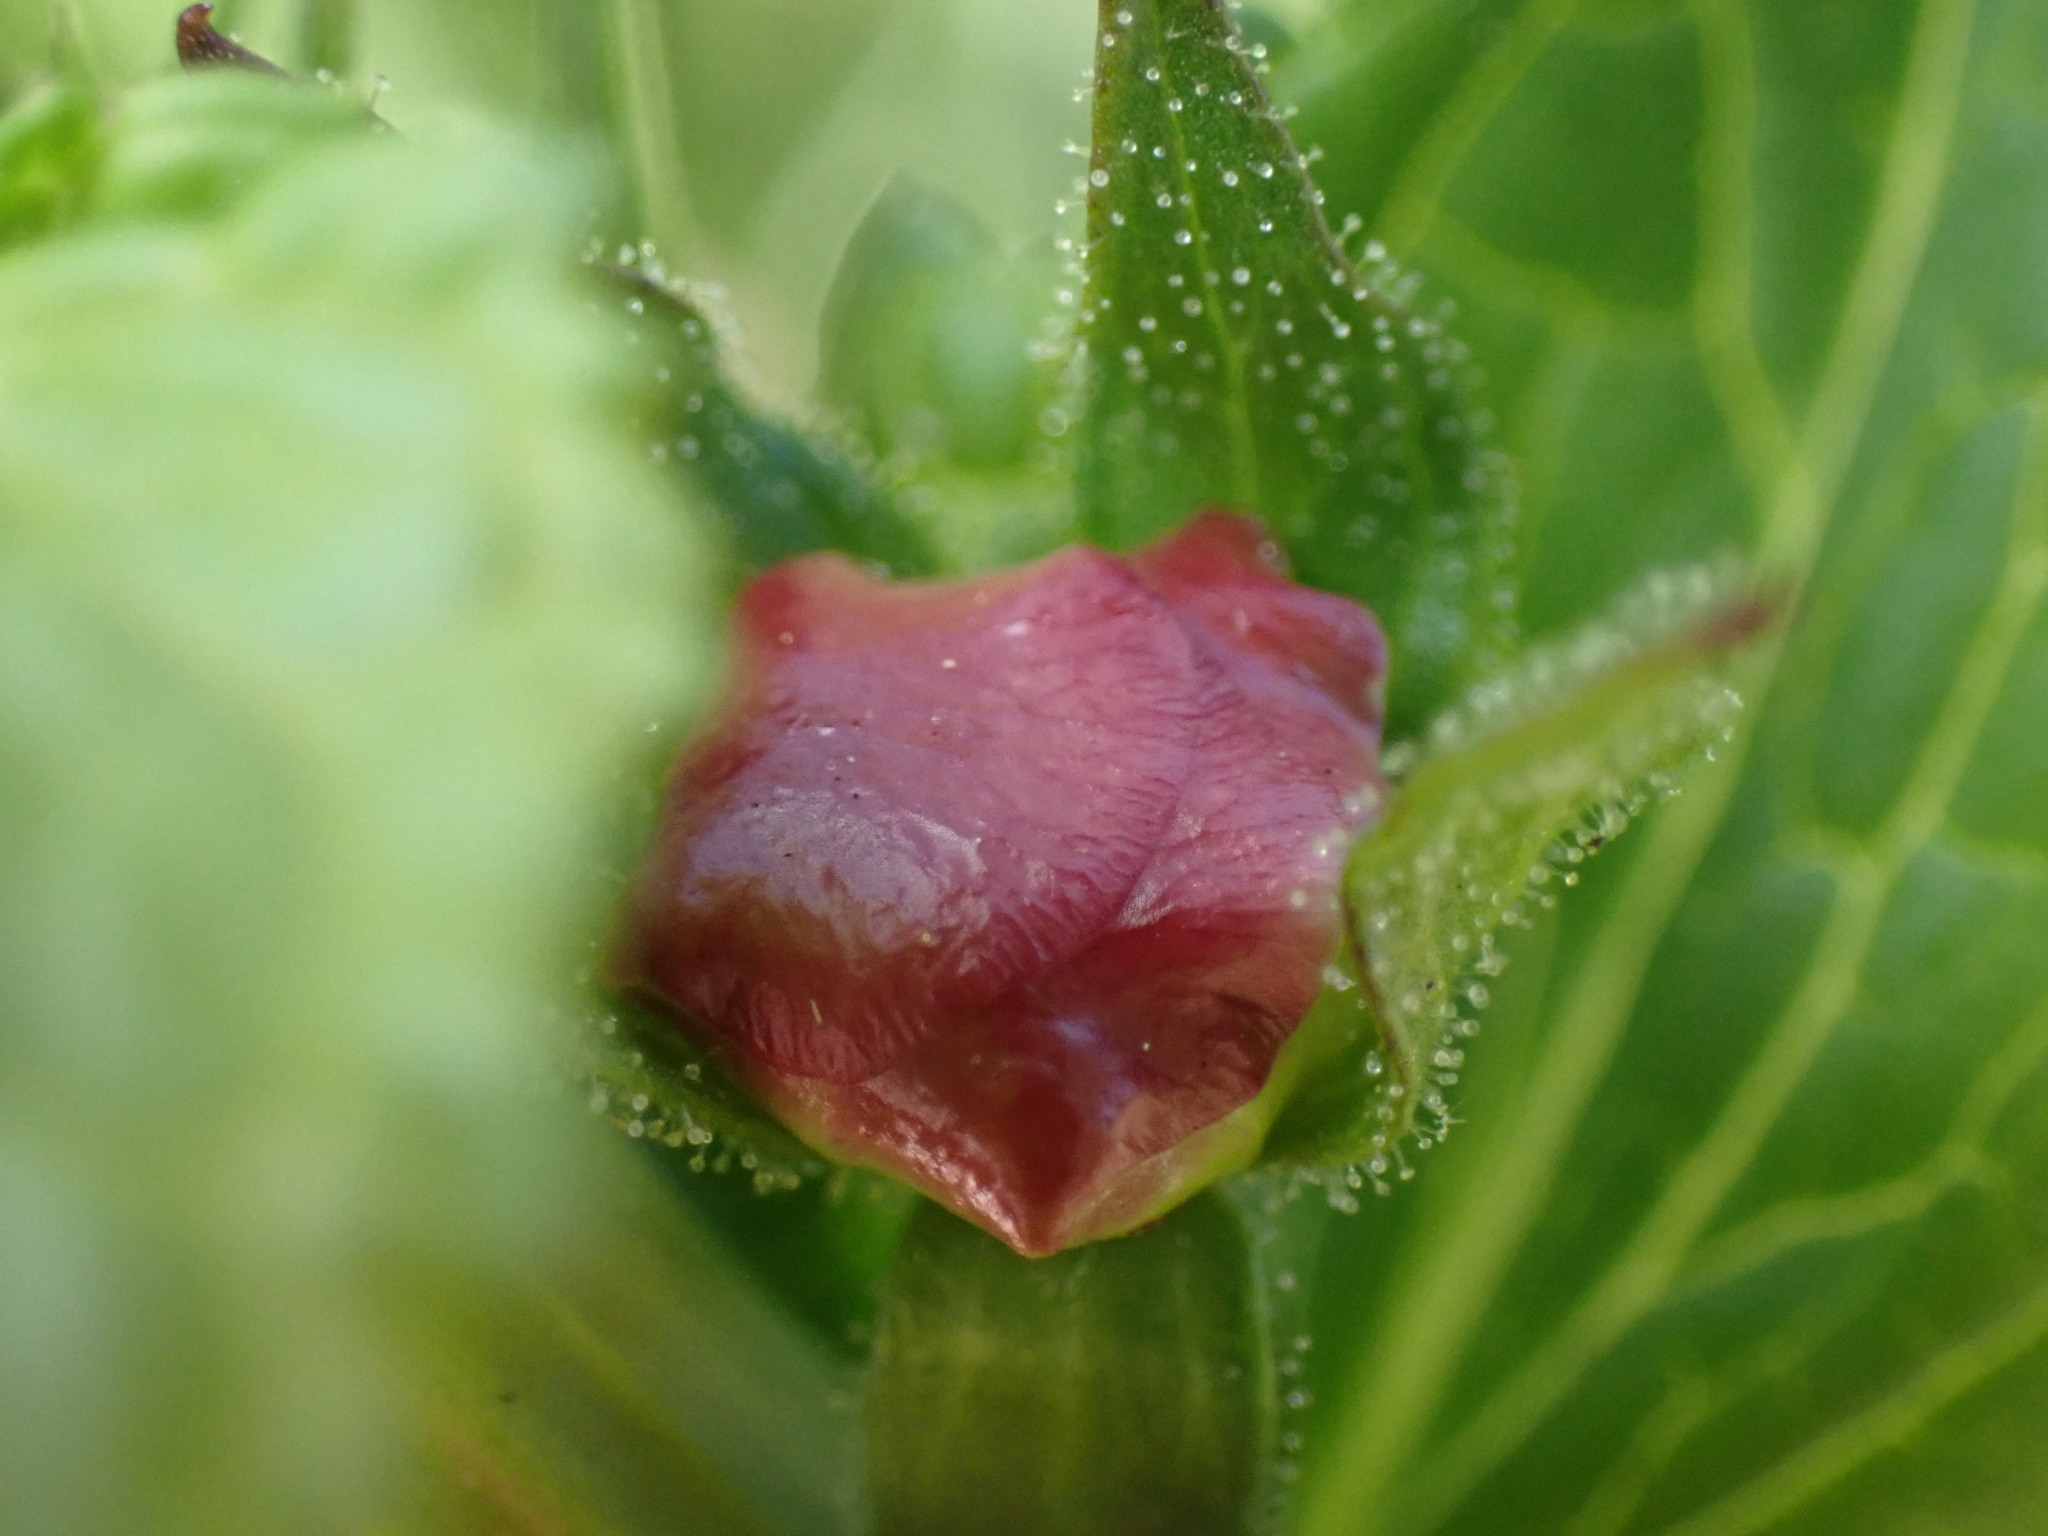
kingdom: Plantae
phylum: Tracheophyta
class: Magnoliopsida
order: Lamiales
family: Scrophulariaceae
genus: Verbascum
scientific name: Verbascum blattaria
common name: Moth mullein
